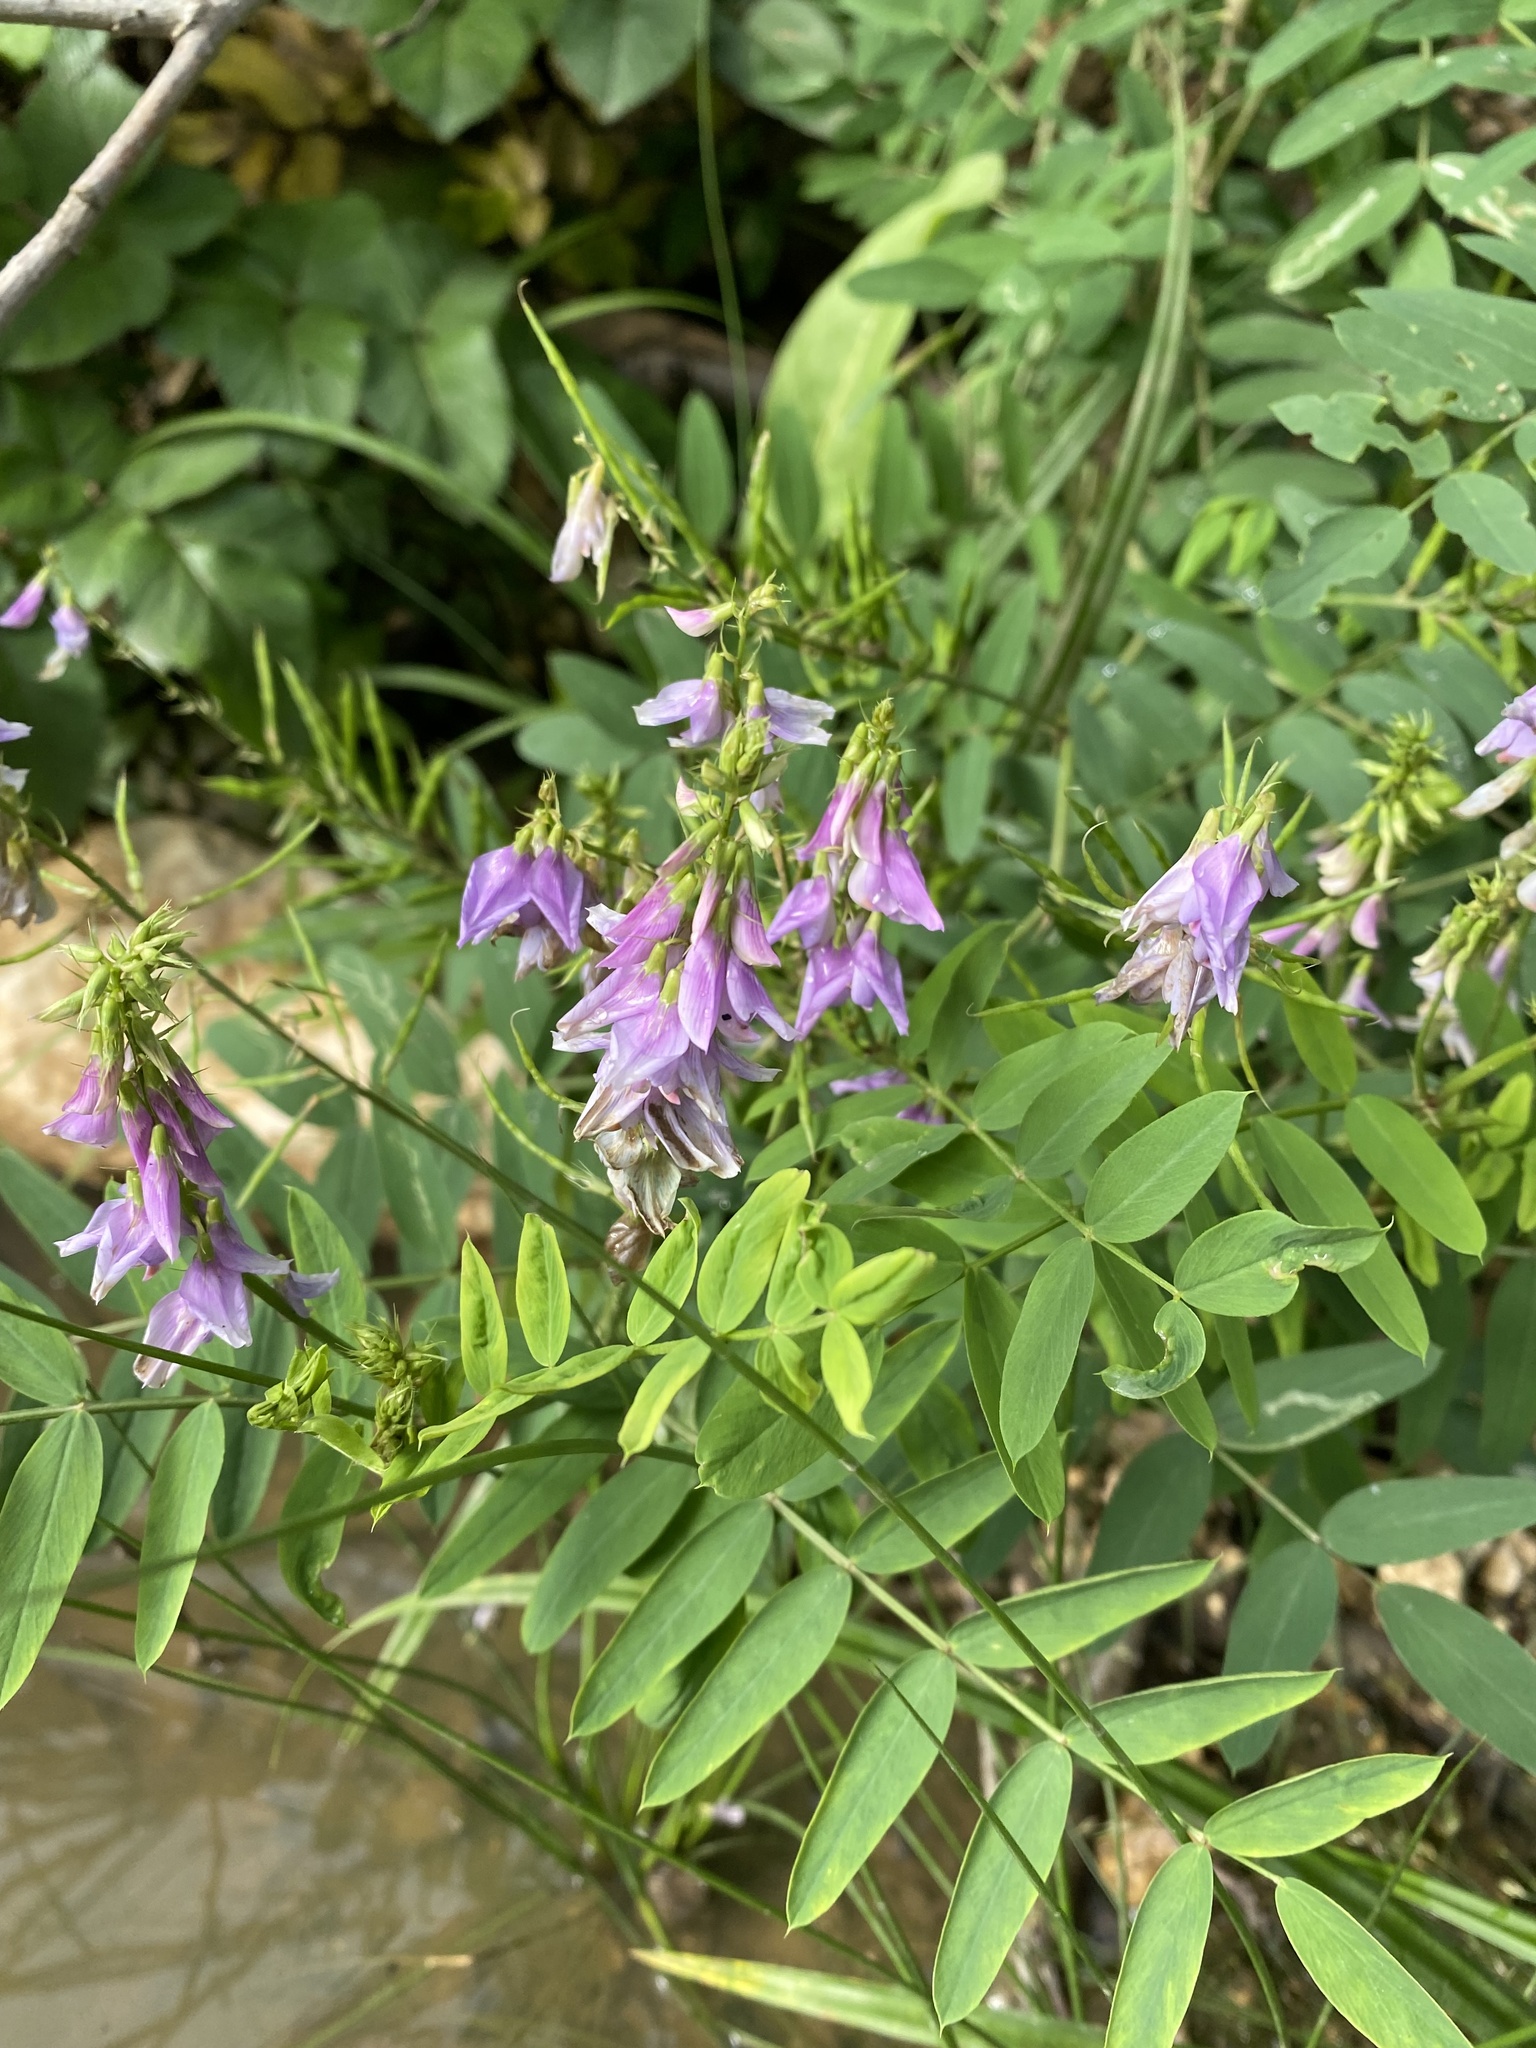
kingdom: Plantae
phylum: Tracheophyta
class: Magnoliopsida
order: Fabales
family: Fabaceae
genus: Galega
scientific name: Galega orientalis
